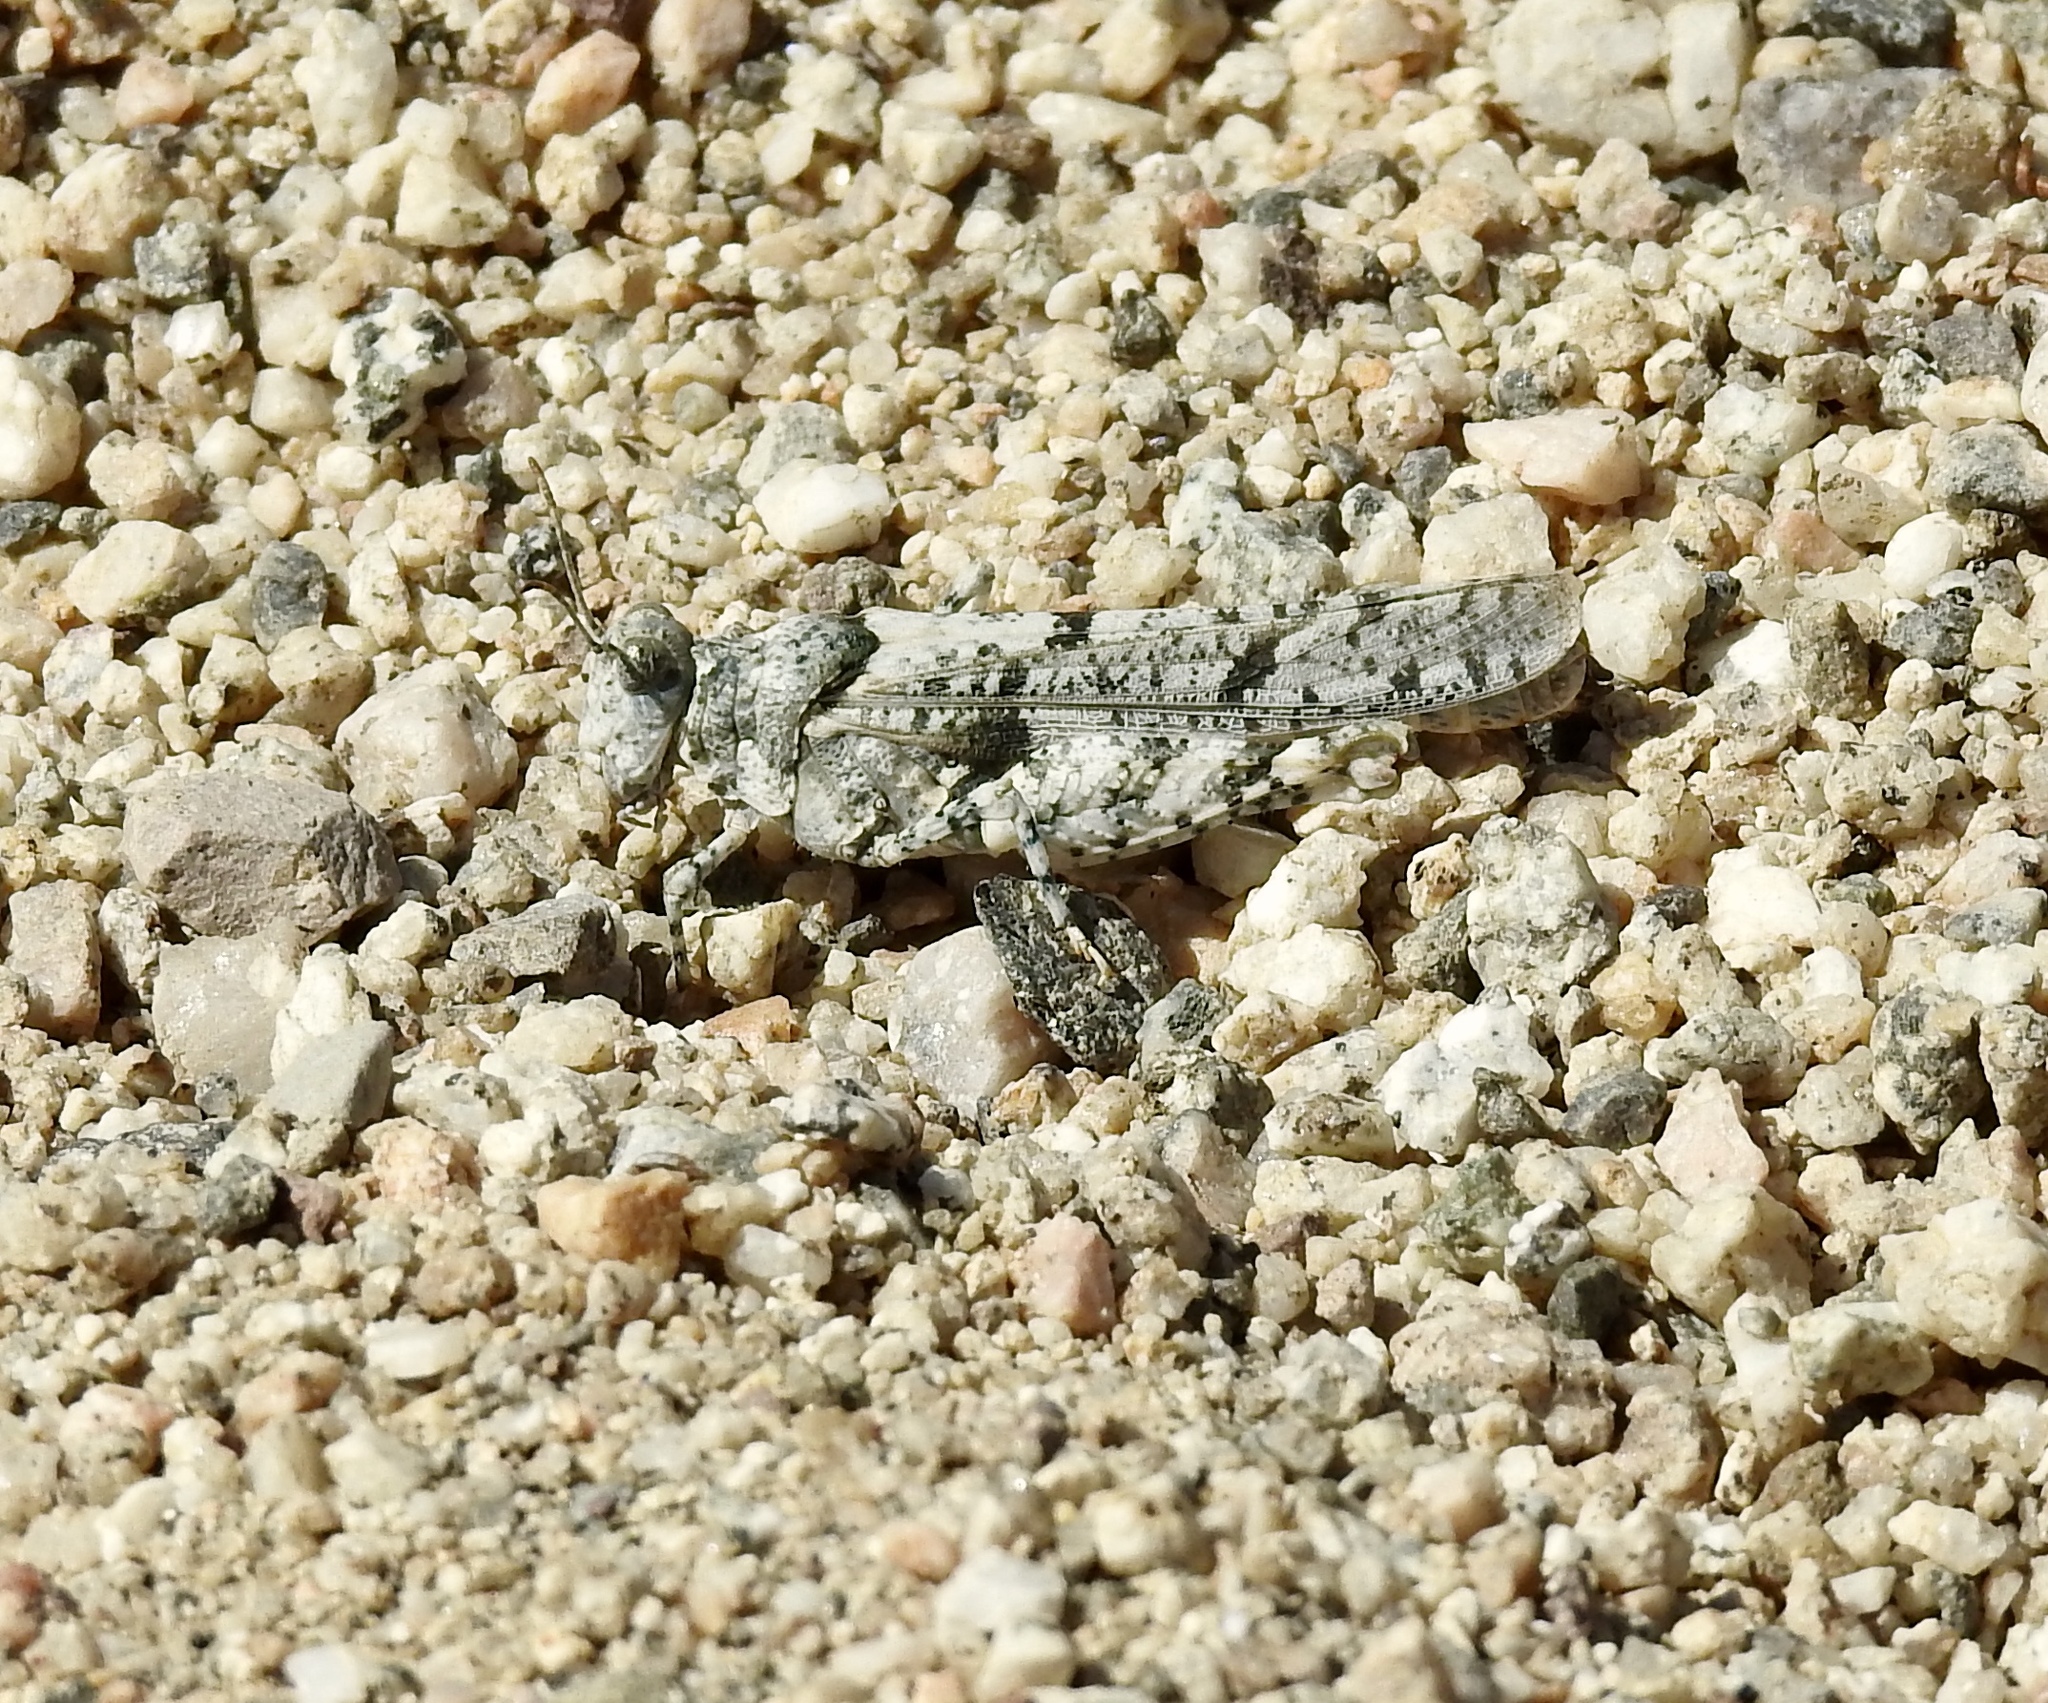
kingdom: Animalia
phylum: Arthropoda
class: Insecta
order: Orthoptera
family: Acrididae
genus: Cibolacris
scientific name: Cibolacris parviceps
